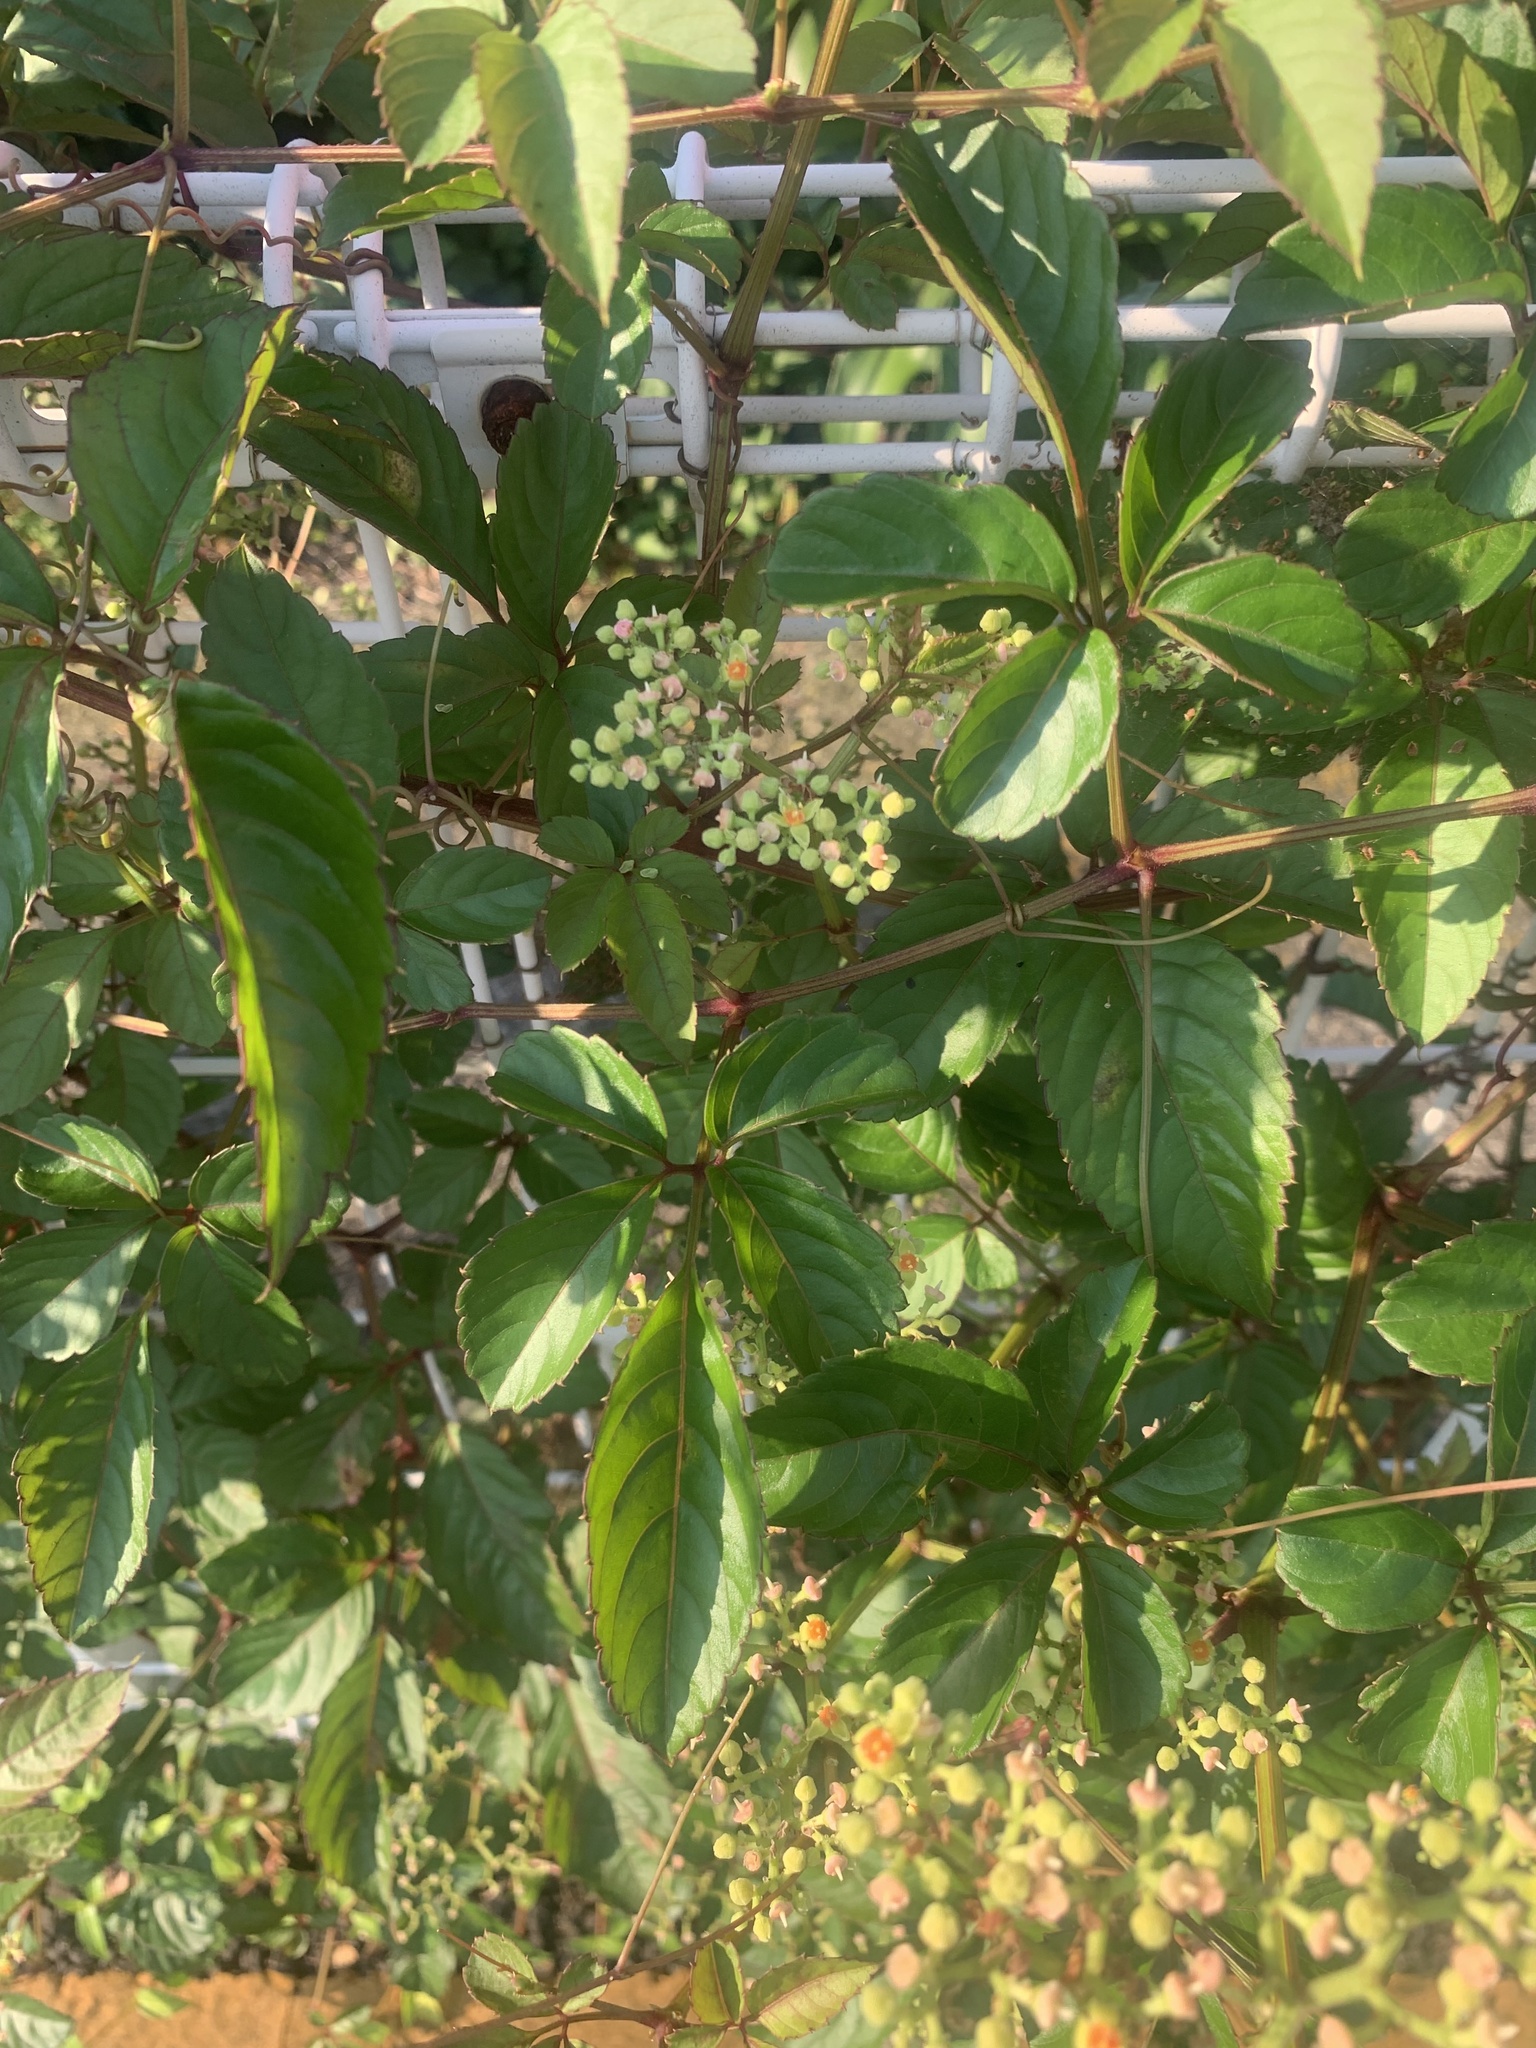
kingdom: Plantae
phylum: Tracheophyta
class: Magnoliopsida
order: Vitales
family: Vitaceae
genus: Causonis
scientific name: Causonis japonica
